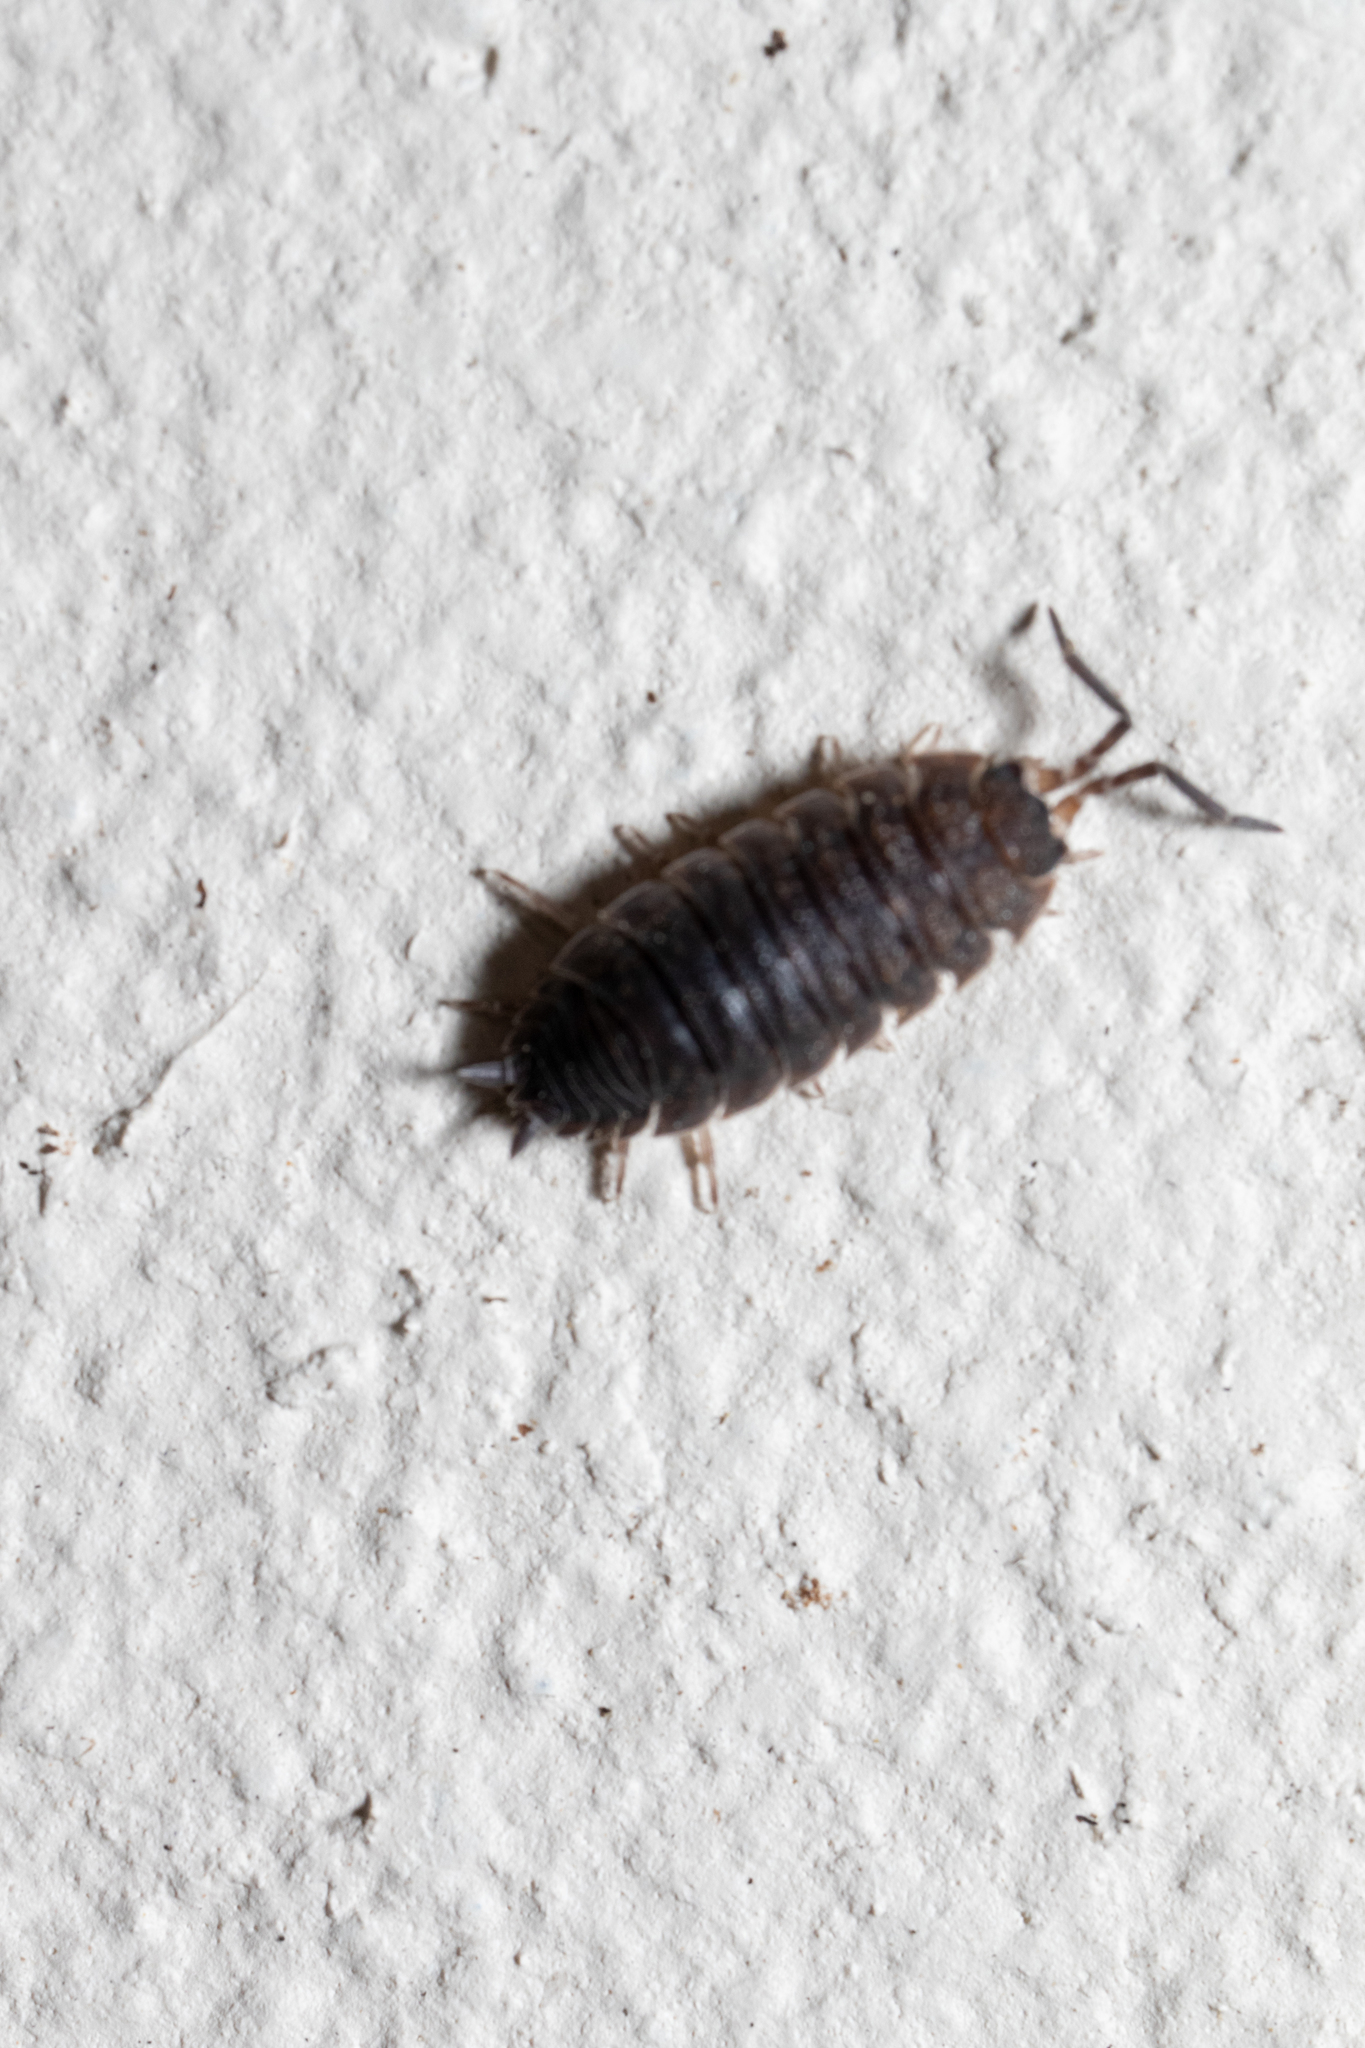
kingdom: Animalia
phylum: Arthropoda
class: Malacostraca
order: Isopoda
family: Porcellionidae
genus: Porcellio
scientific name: Porcellio scaber
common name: Common rough woodlouse
